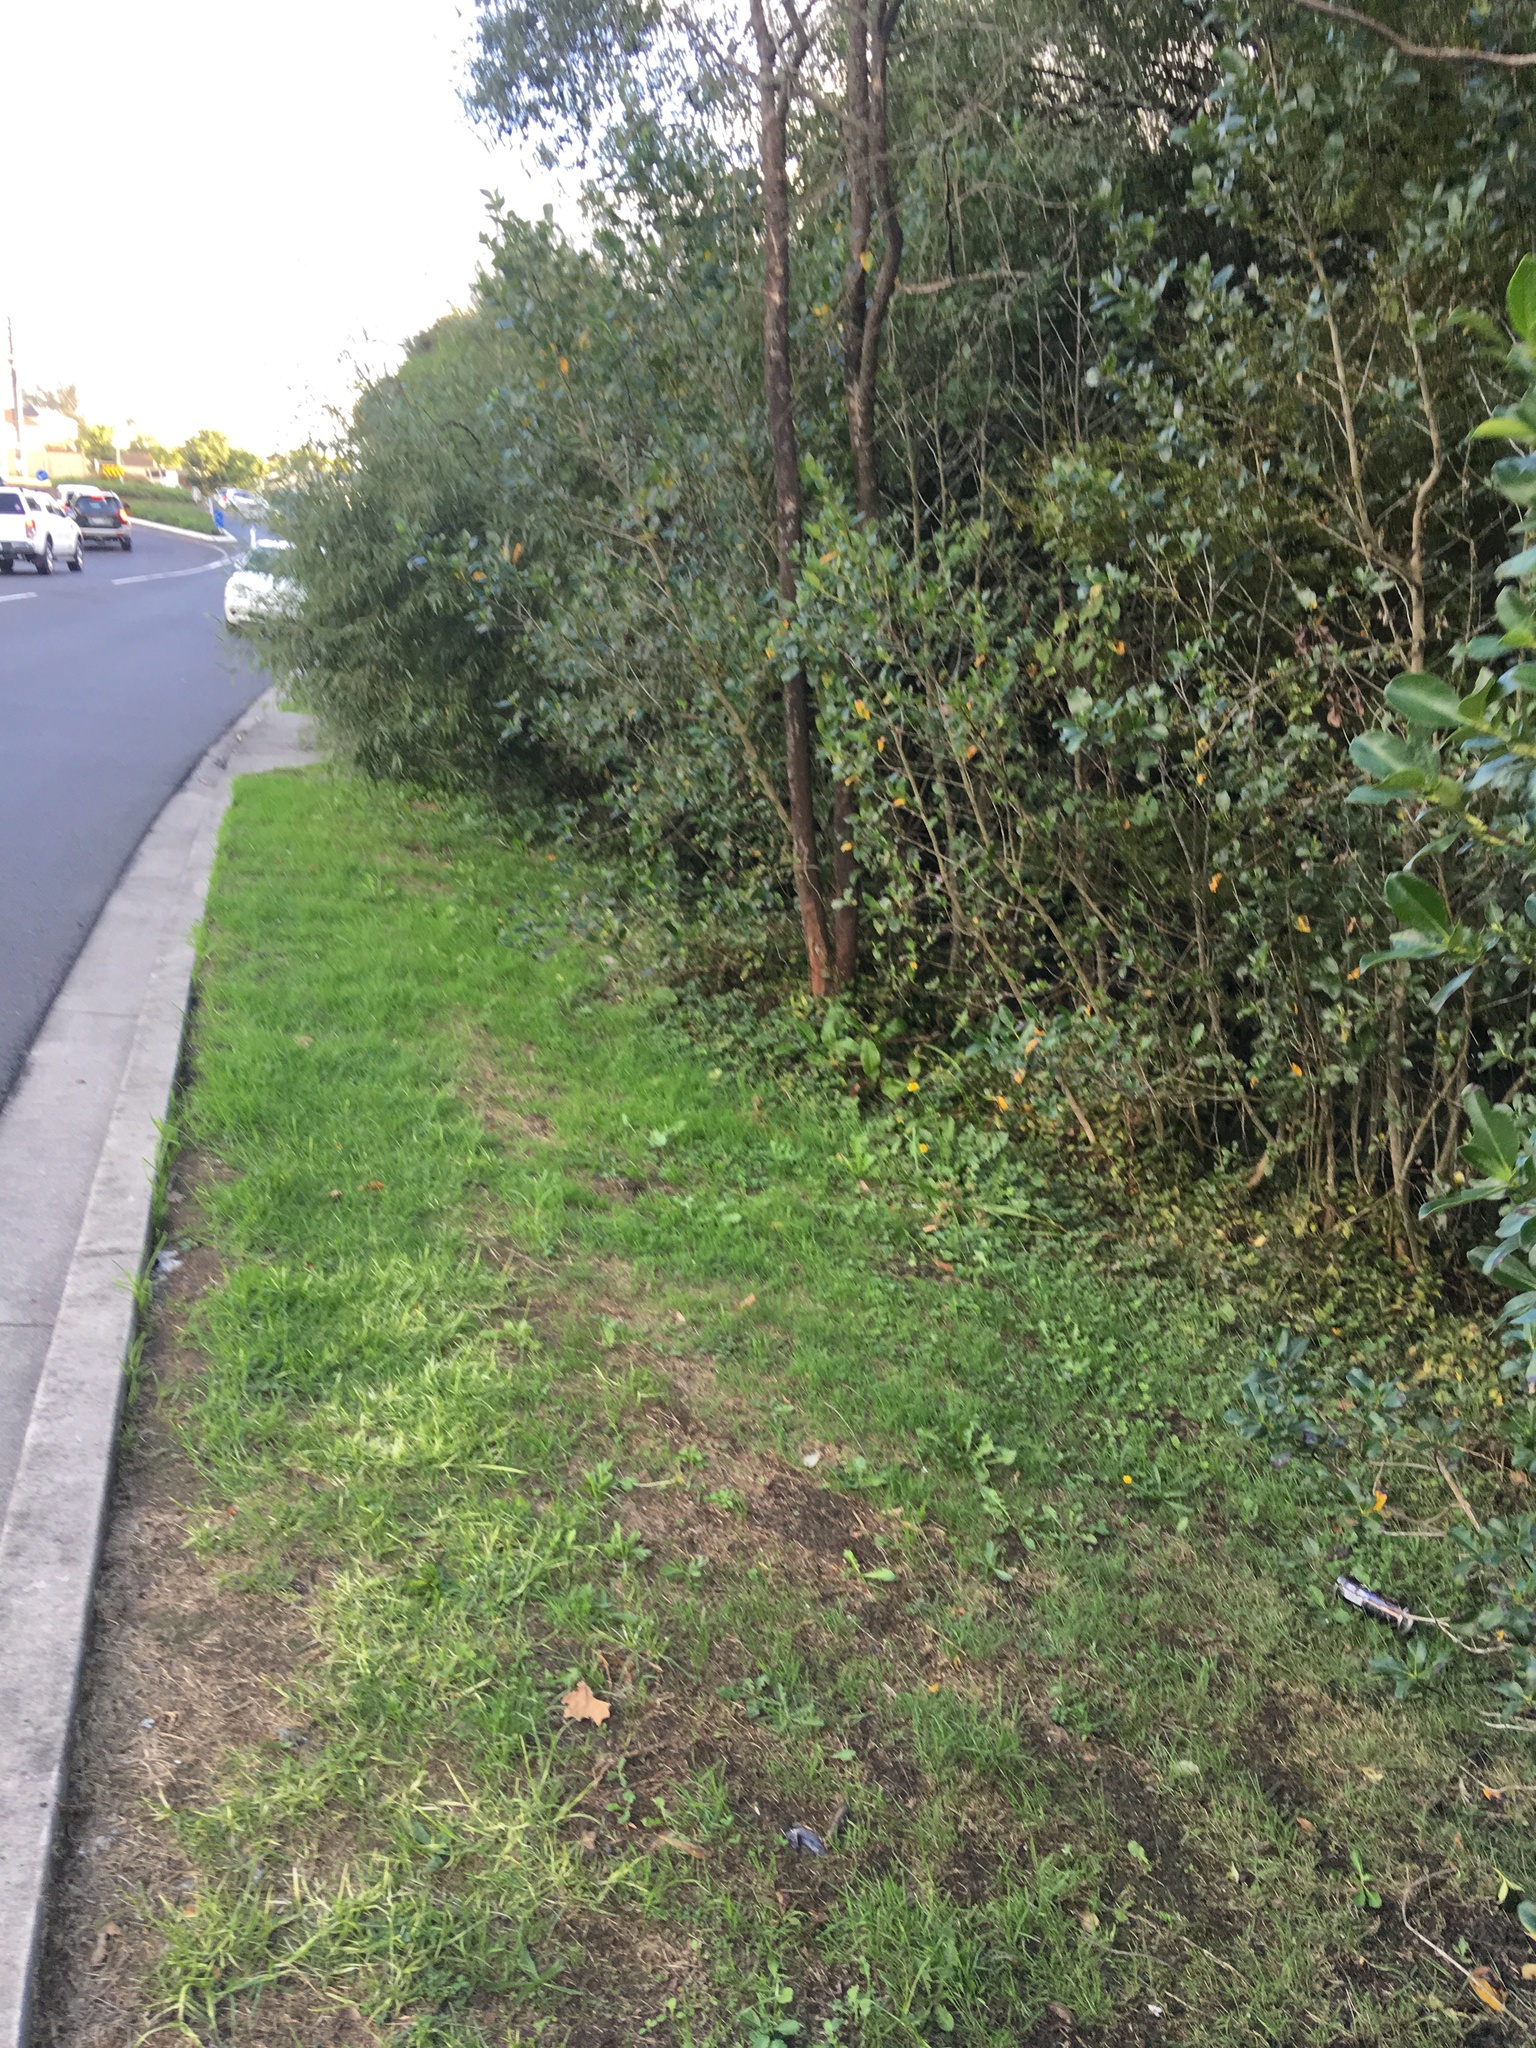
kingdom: Plantae
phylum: Tracheophyta
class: Magnoliopsida
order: Gentianales
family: Rubiaceae
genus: Coprosma
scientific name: Coprosma robusta
